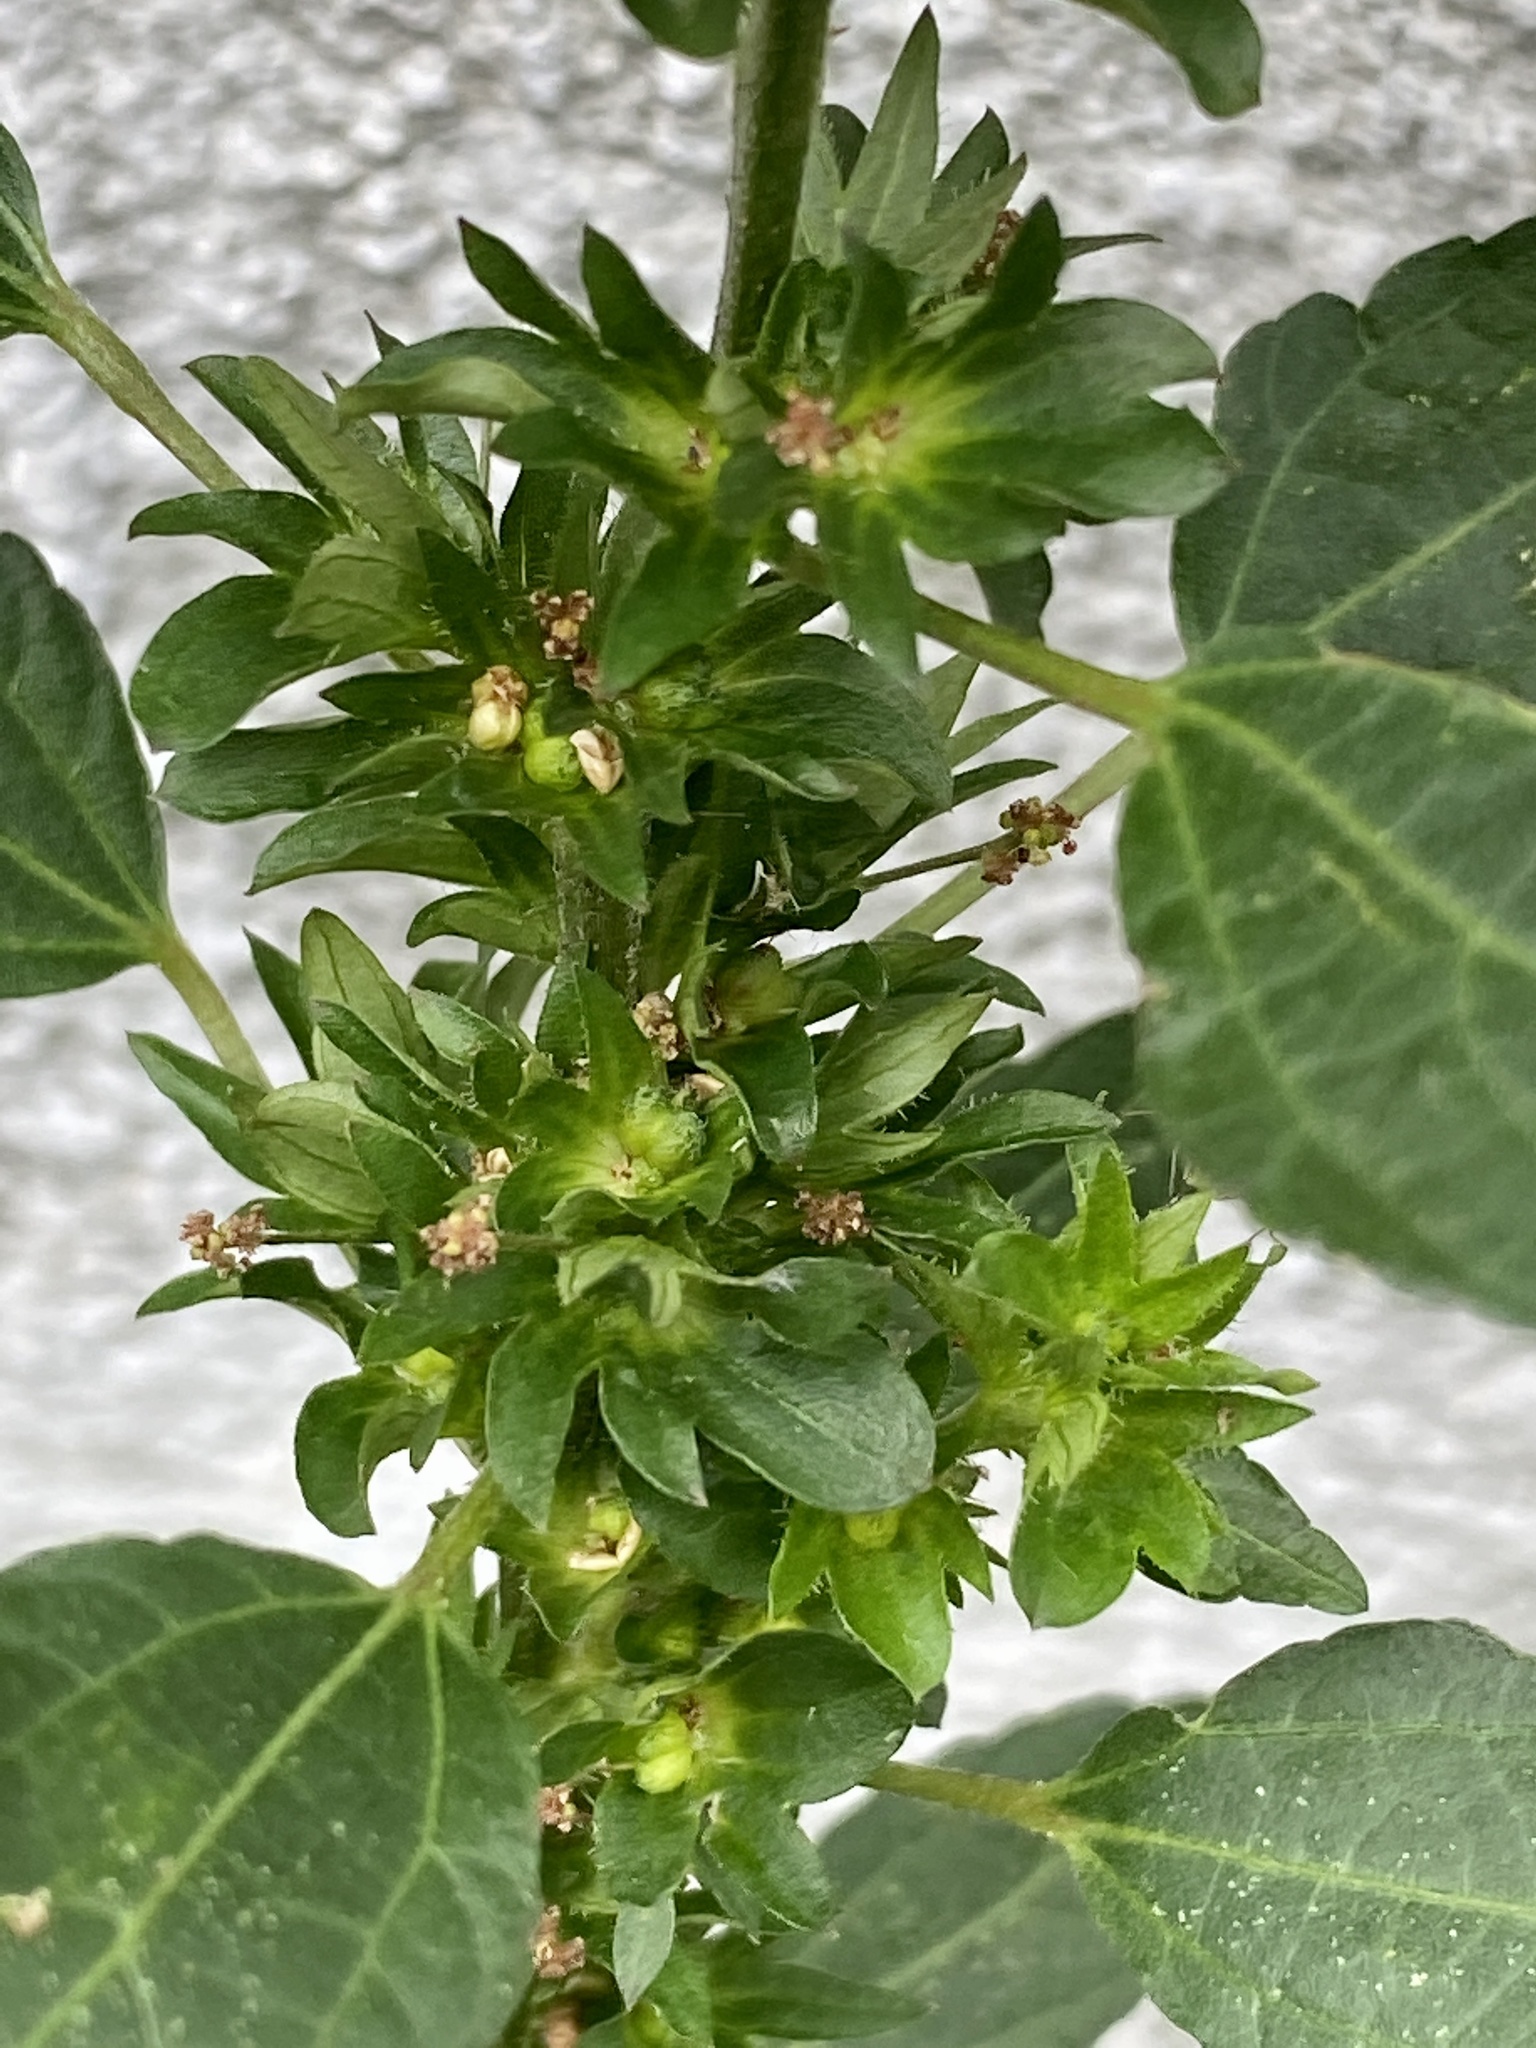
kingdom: Plantae
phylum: Tracheophyta
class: Magnoliopsida
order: Malpighiales
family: Euphorbiaceae
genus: Acalypha
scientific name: Acalypha rhomboidea
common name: Rhombic copperleaf
